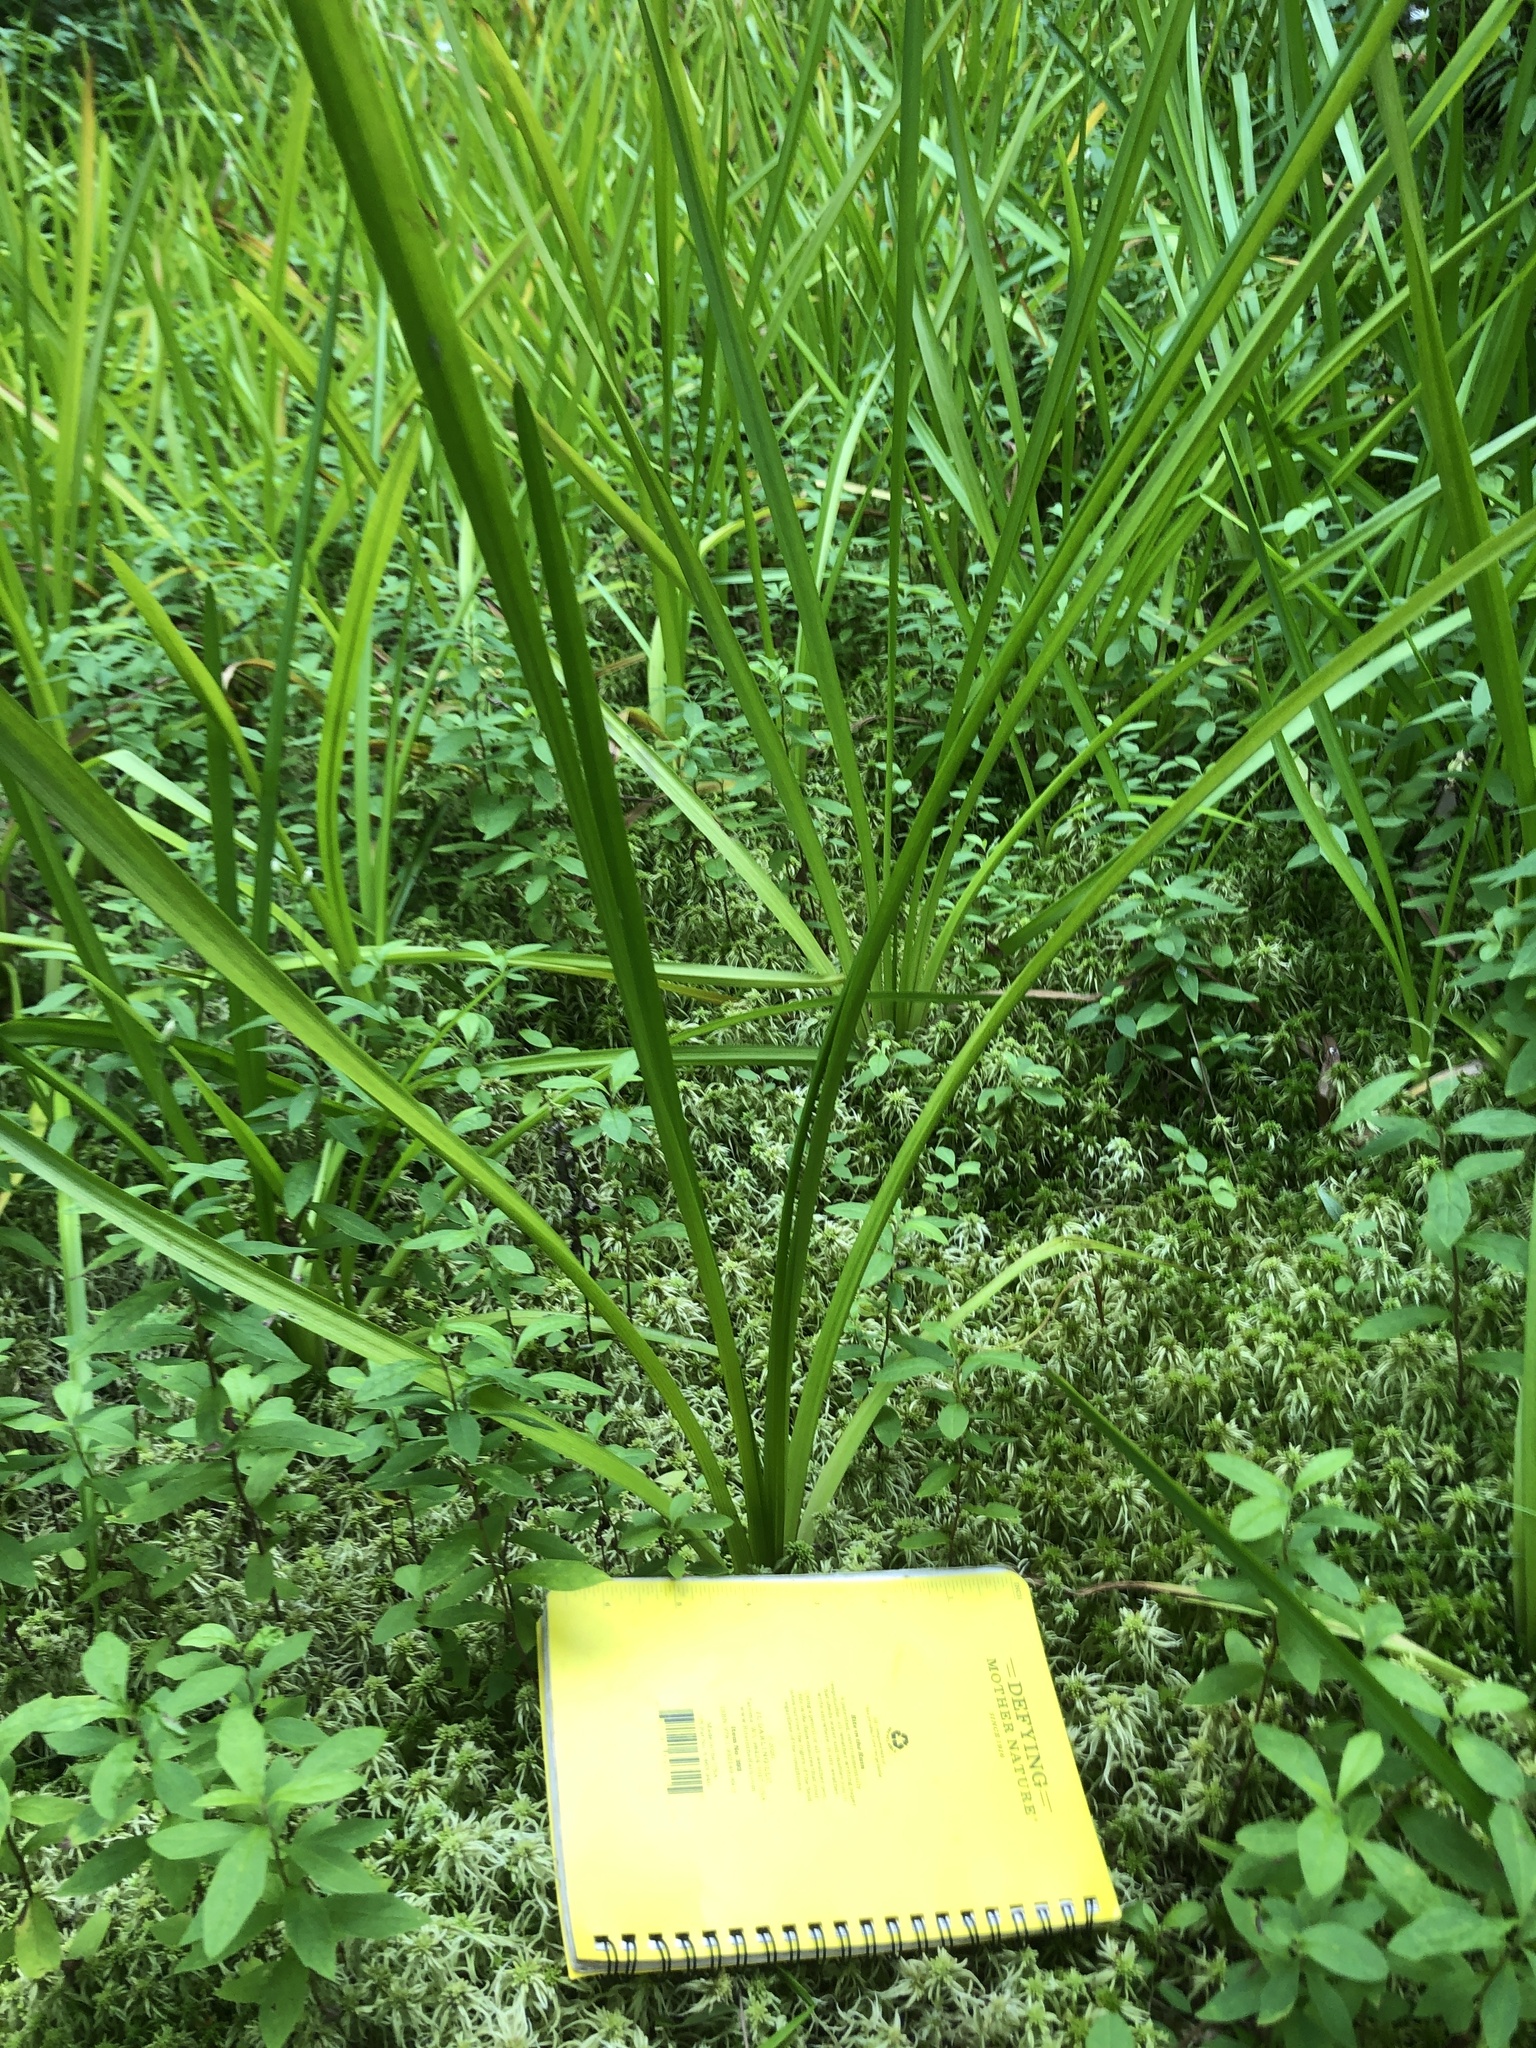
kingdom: Plantae
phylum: Tracheophyta
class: Liliopsida
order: Asparagales
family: Iridaceae
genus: Iris
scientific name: Iris versicolor
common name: Purple iris
